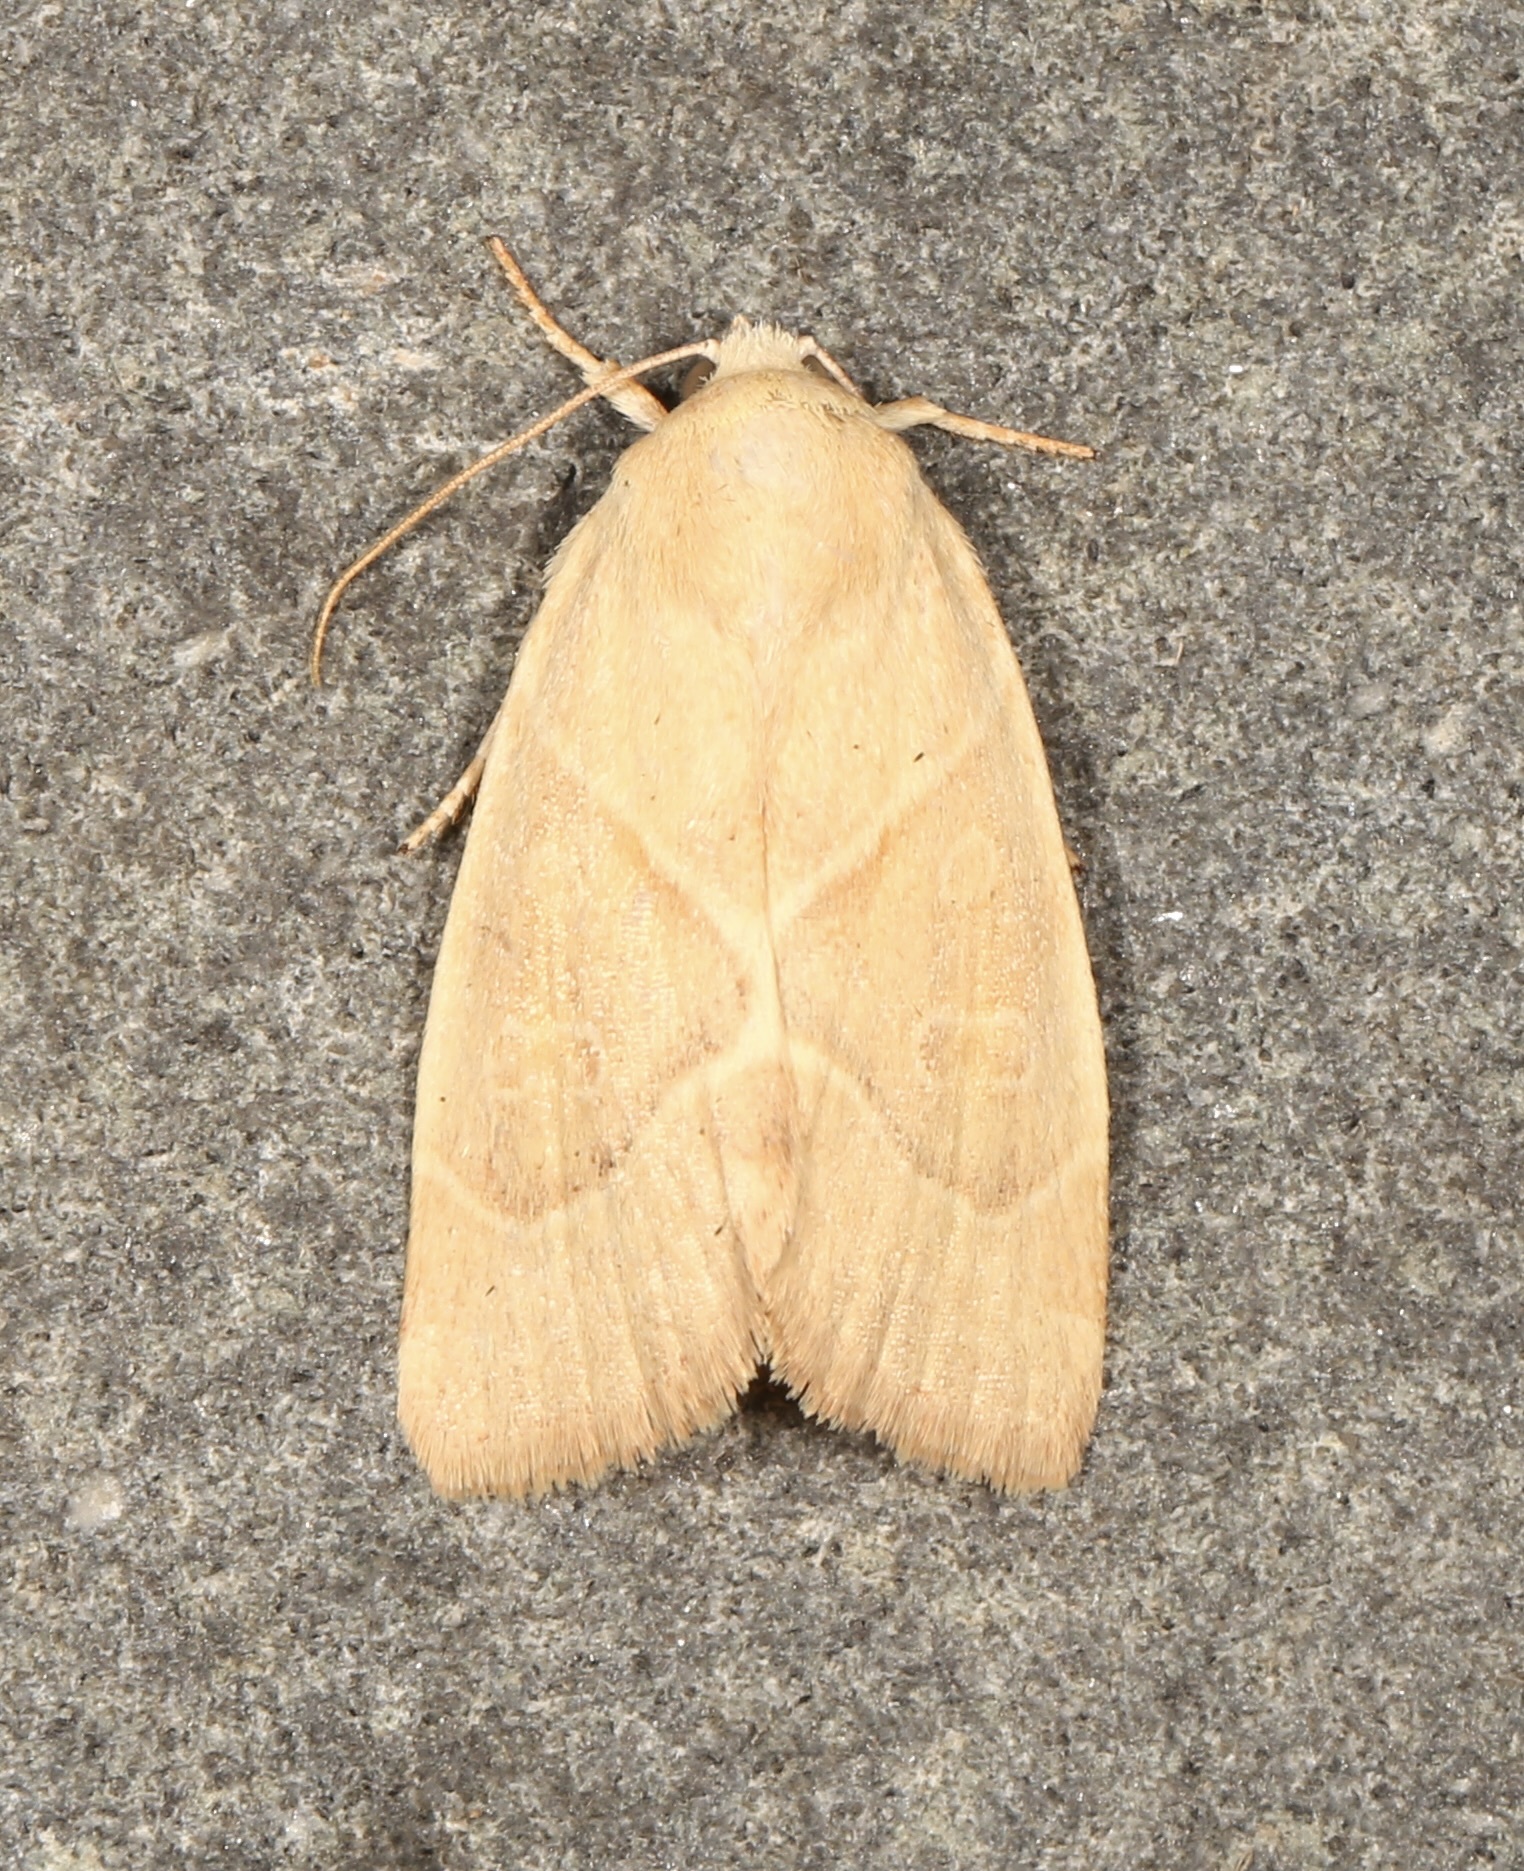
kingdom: Animalia
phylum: Arthropoda
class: Insecta
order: Lepidoptera
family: Noctuidae
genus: Cosmia
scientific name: Cosmia calami
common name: American dun-bar moth
